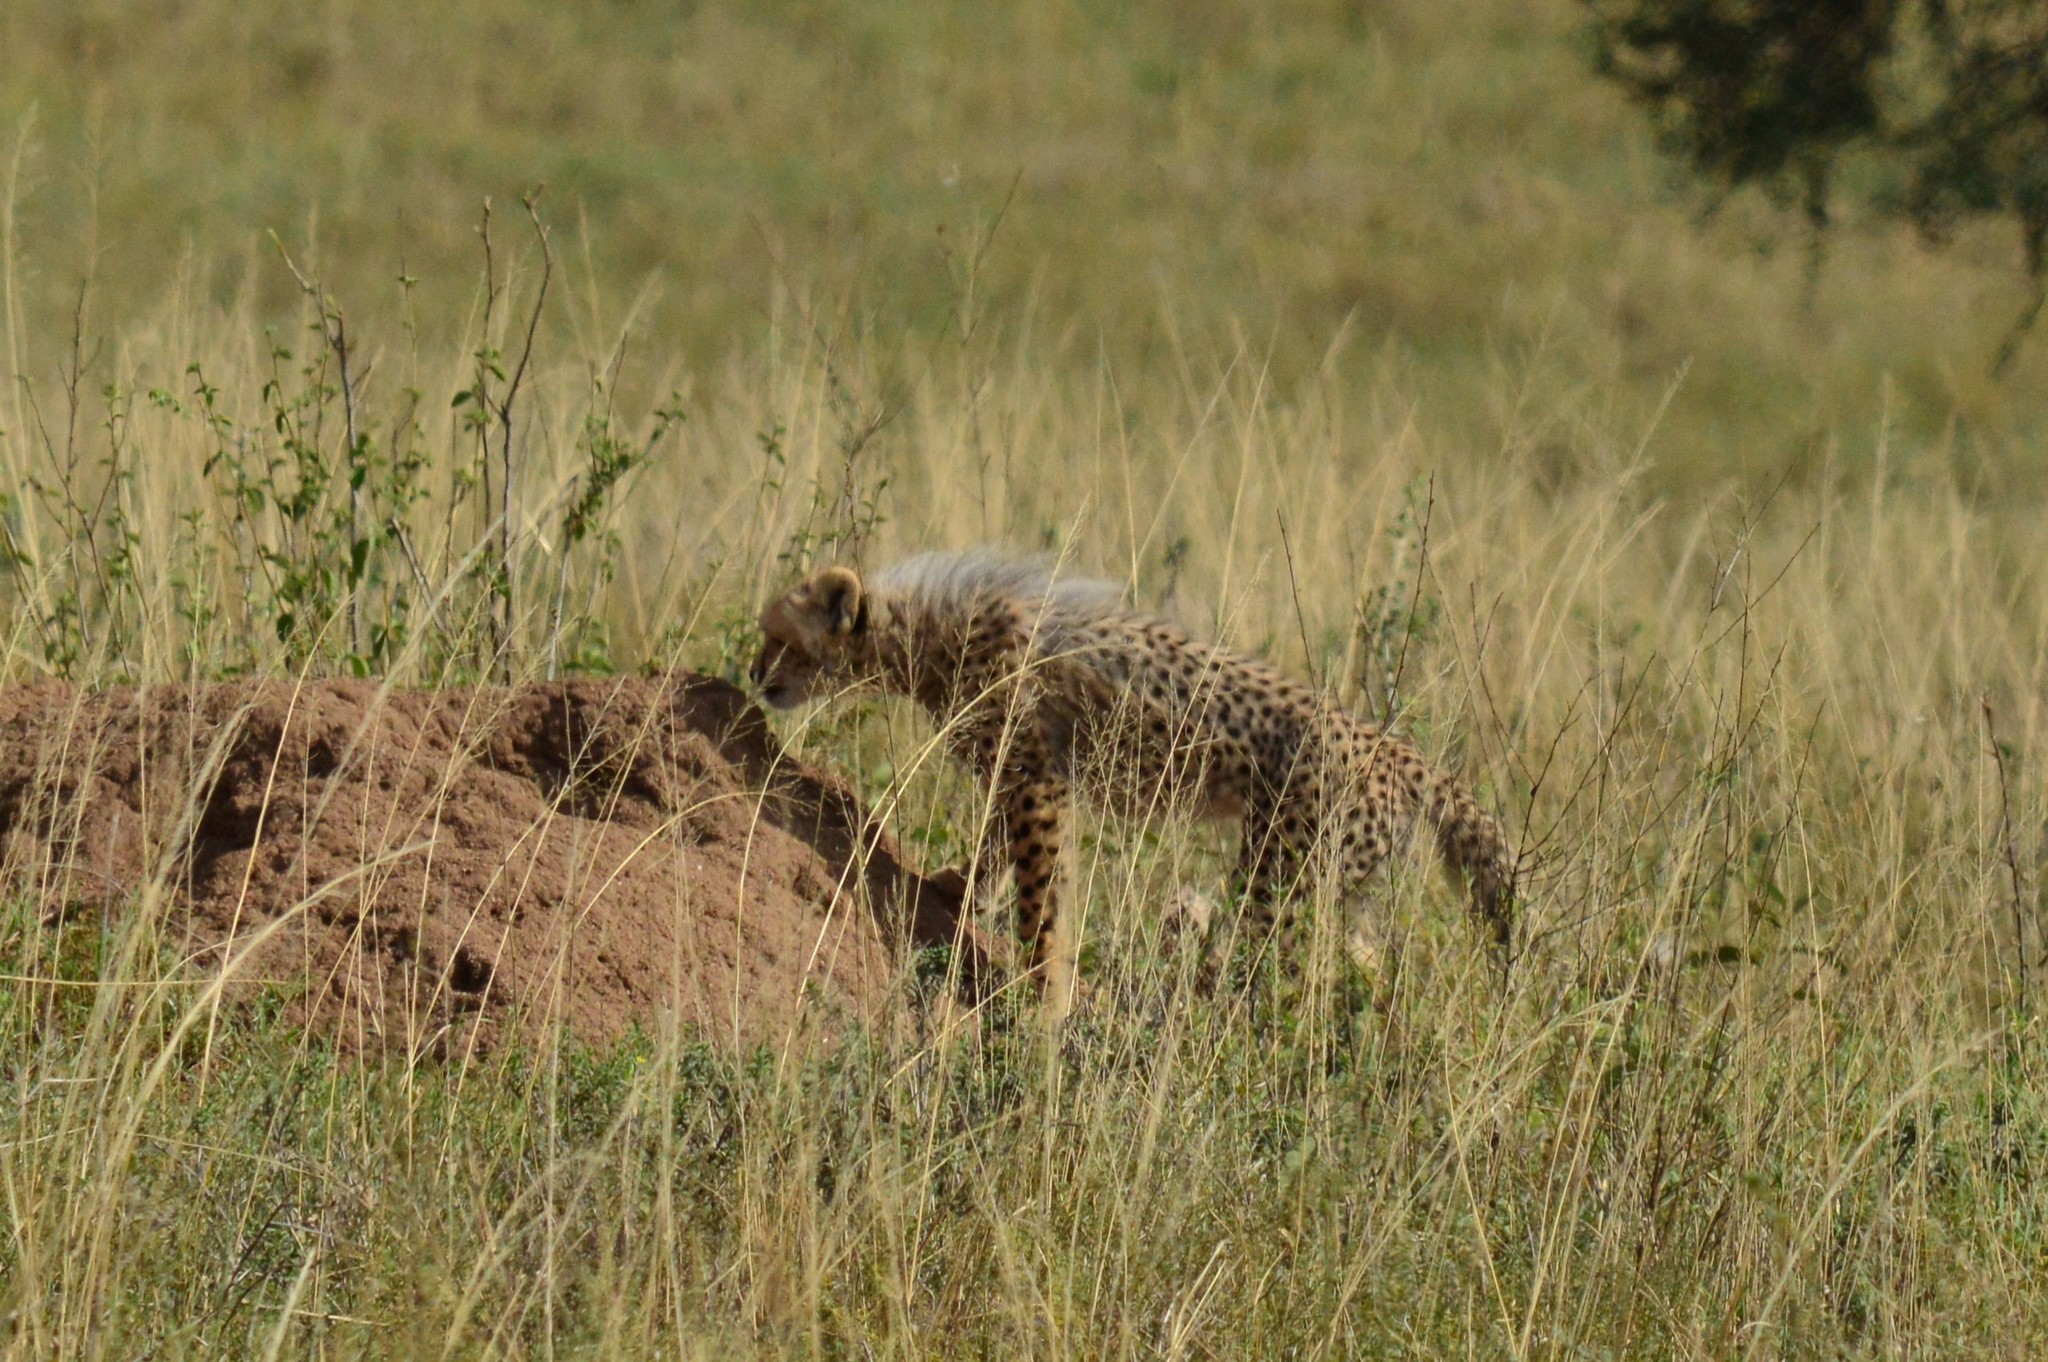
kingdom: Animalia
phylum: Chordata
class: Mammalia
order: Carnivora
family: Felidae
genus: Acinonyx
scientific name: Acinonyx jubatus
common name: Cheetah
